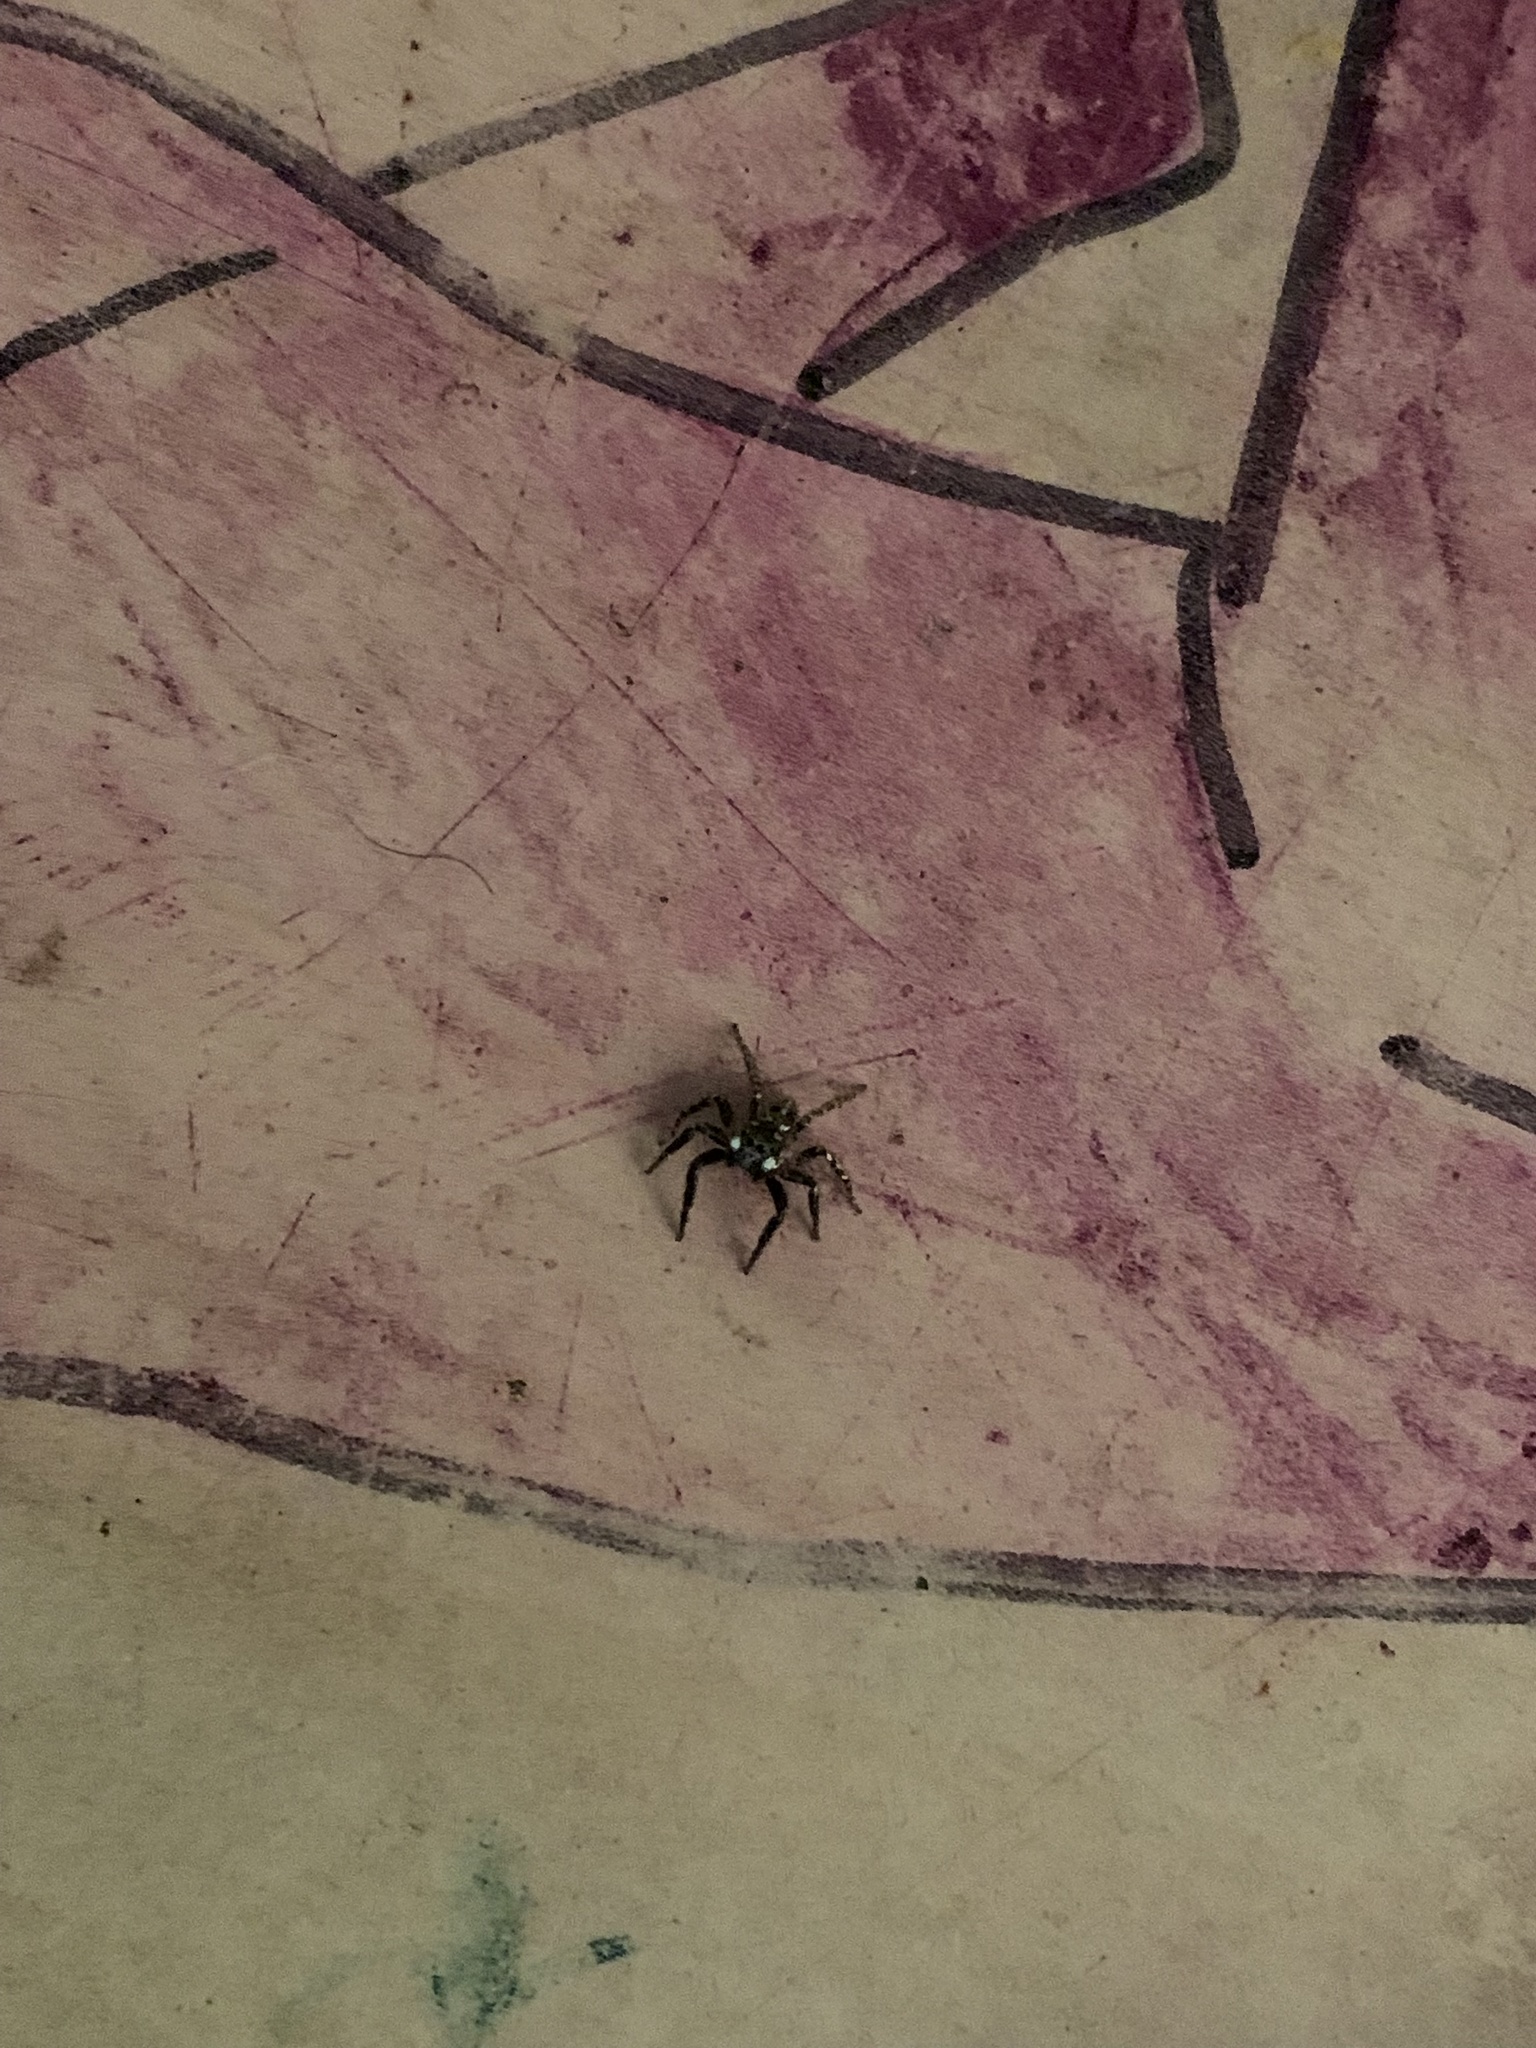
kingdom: Animalia
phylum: Arthropoda
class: Arachnida
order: Araneae
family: Salticidae
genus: Anasaitis
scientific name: Anasaitis canosa
